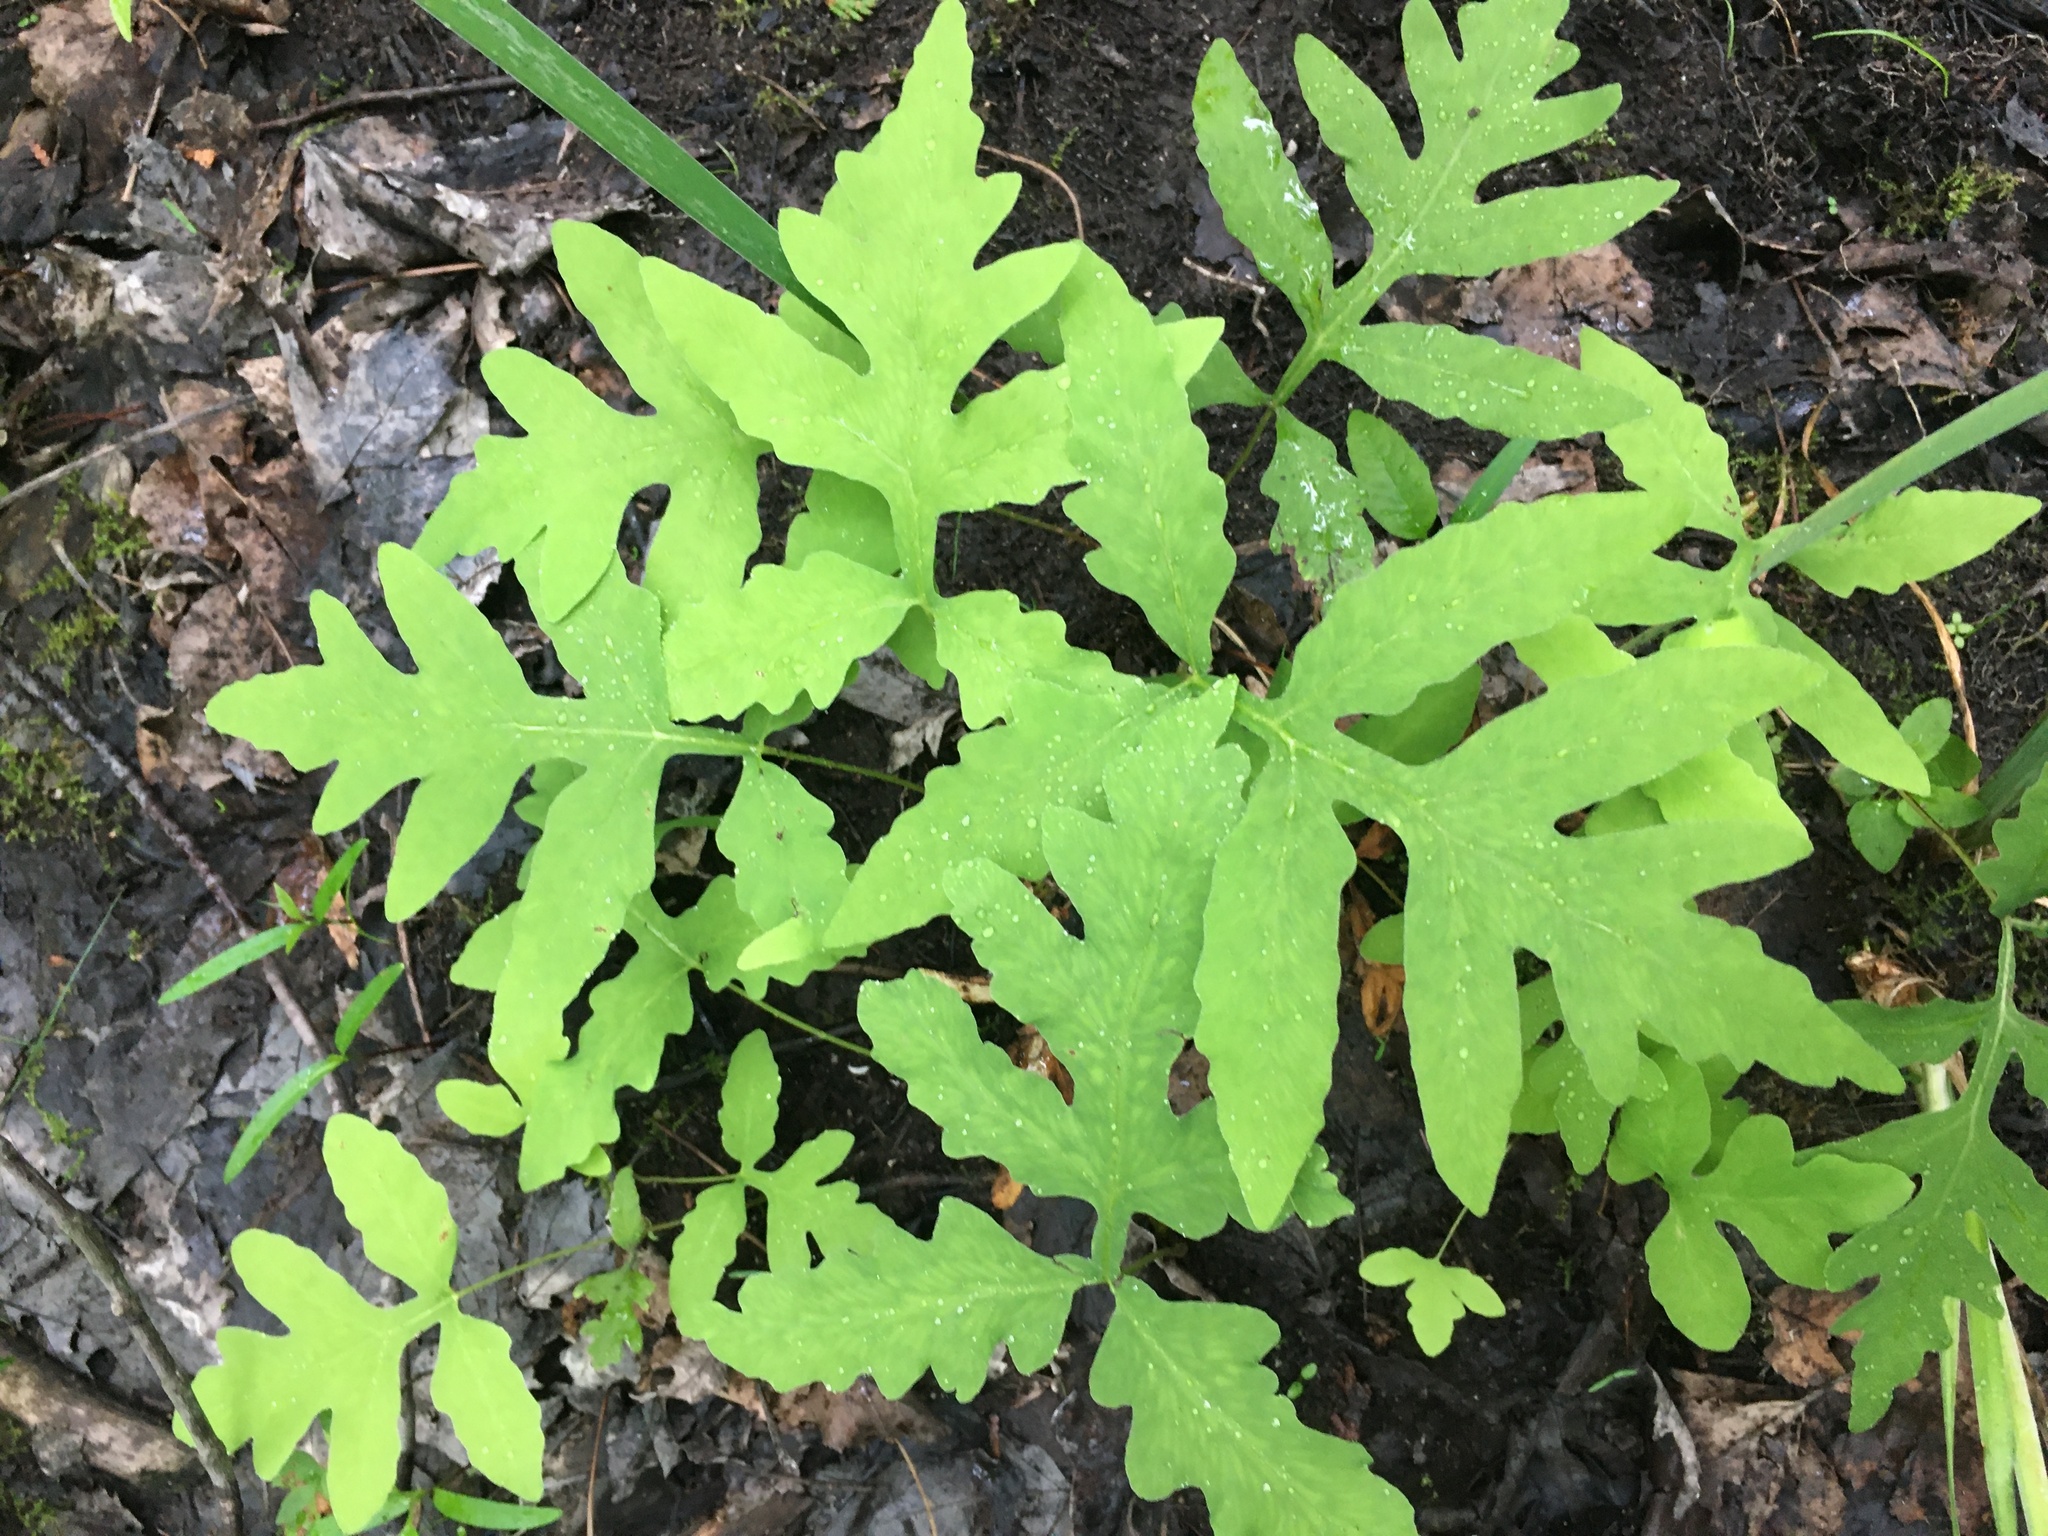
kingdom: Plantae
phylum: Tracheophyta
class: Polypodiopsida
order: Polypodiales
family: Onocleaceae
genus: Onoclea
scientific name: Onoclea sensibilis
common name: Sensitive fern
